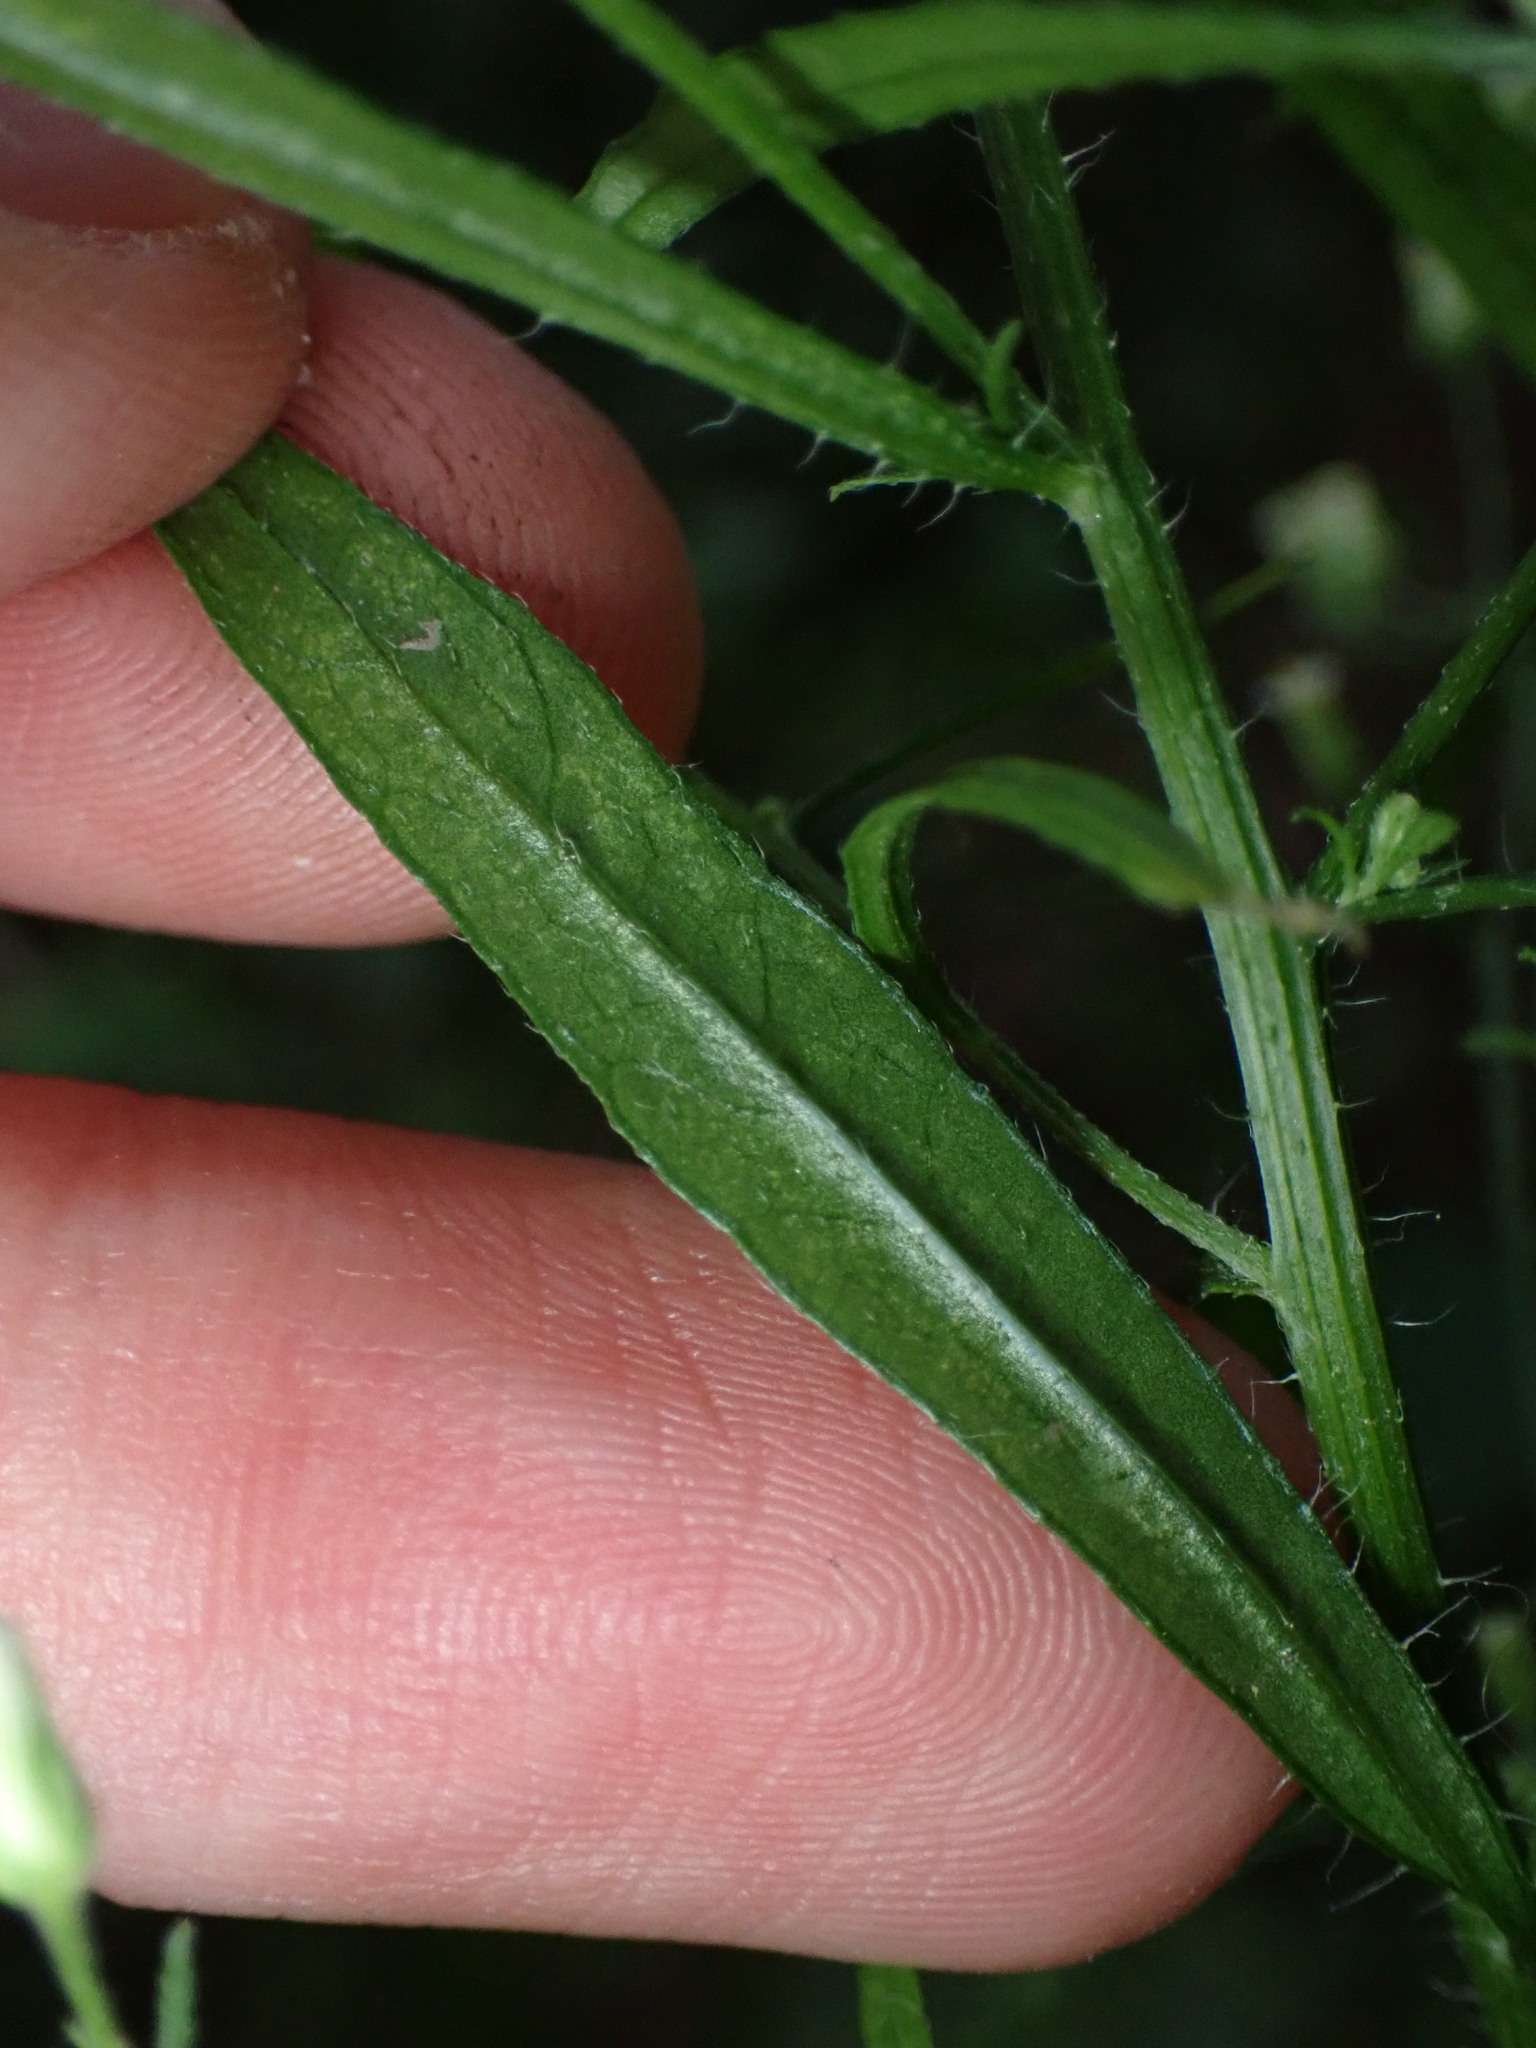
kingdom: Plantae
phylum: Tracheophyta
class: Magnoliopsida
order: Asterales
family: Asteraceae
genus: Erigeron
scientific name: Erigeron canadensis
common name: Canadian fleabane
